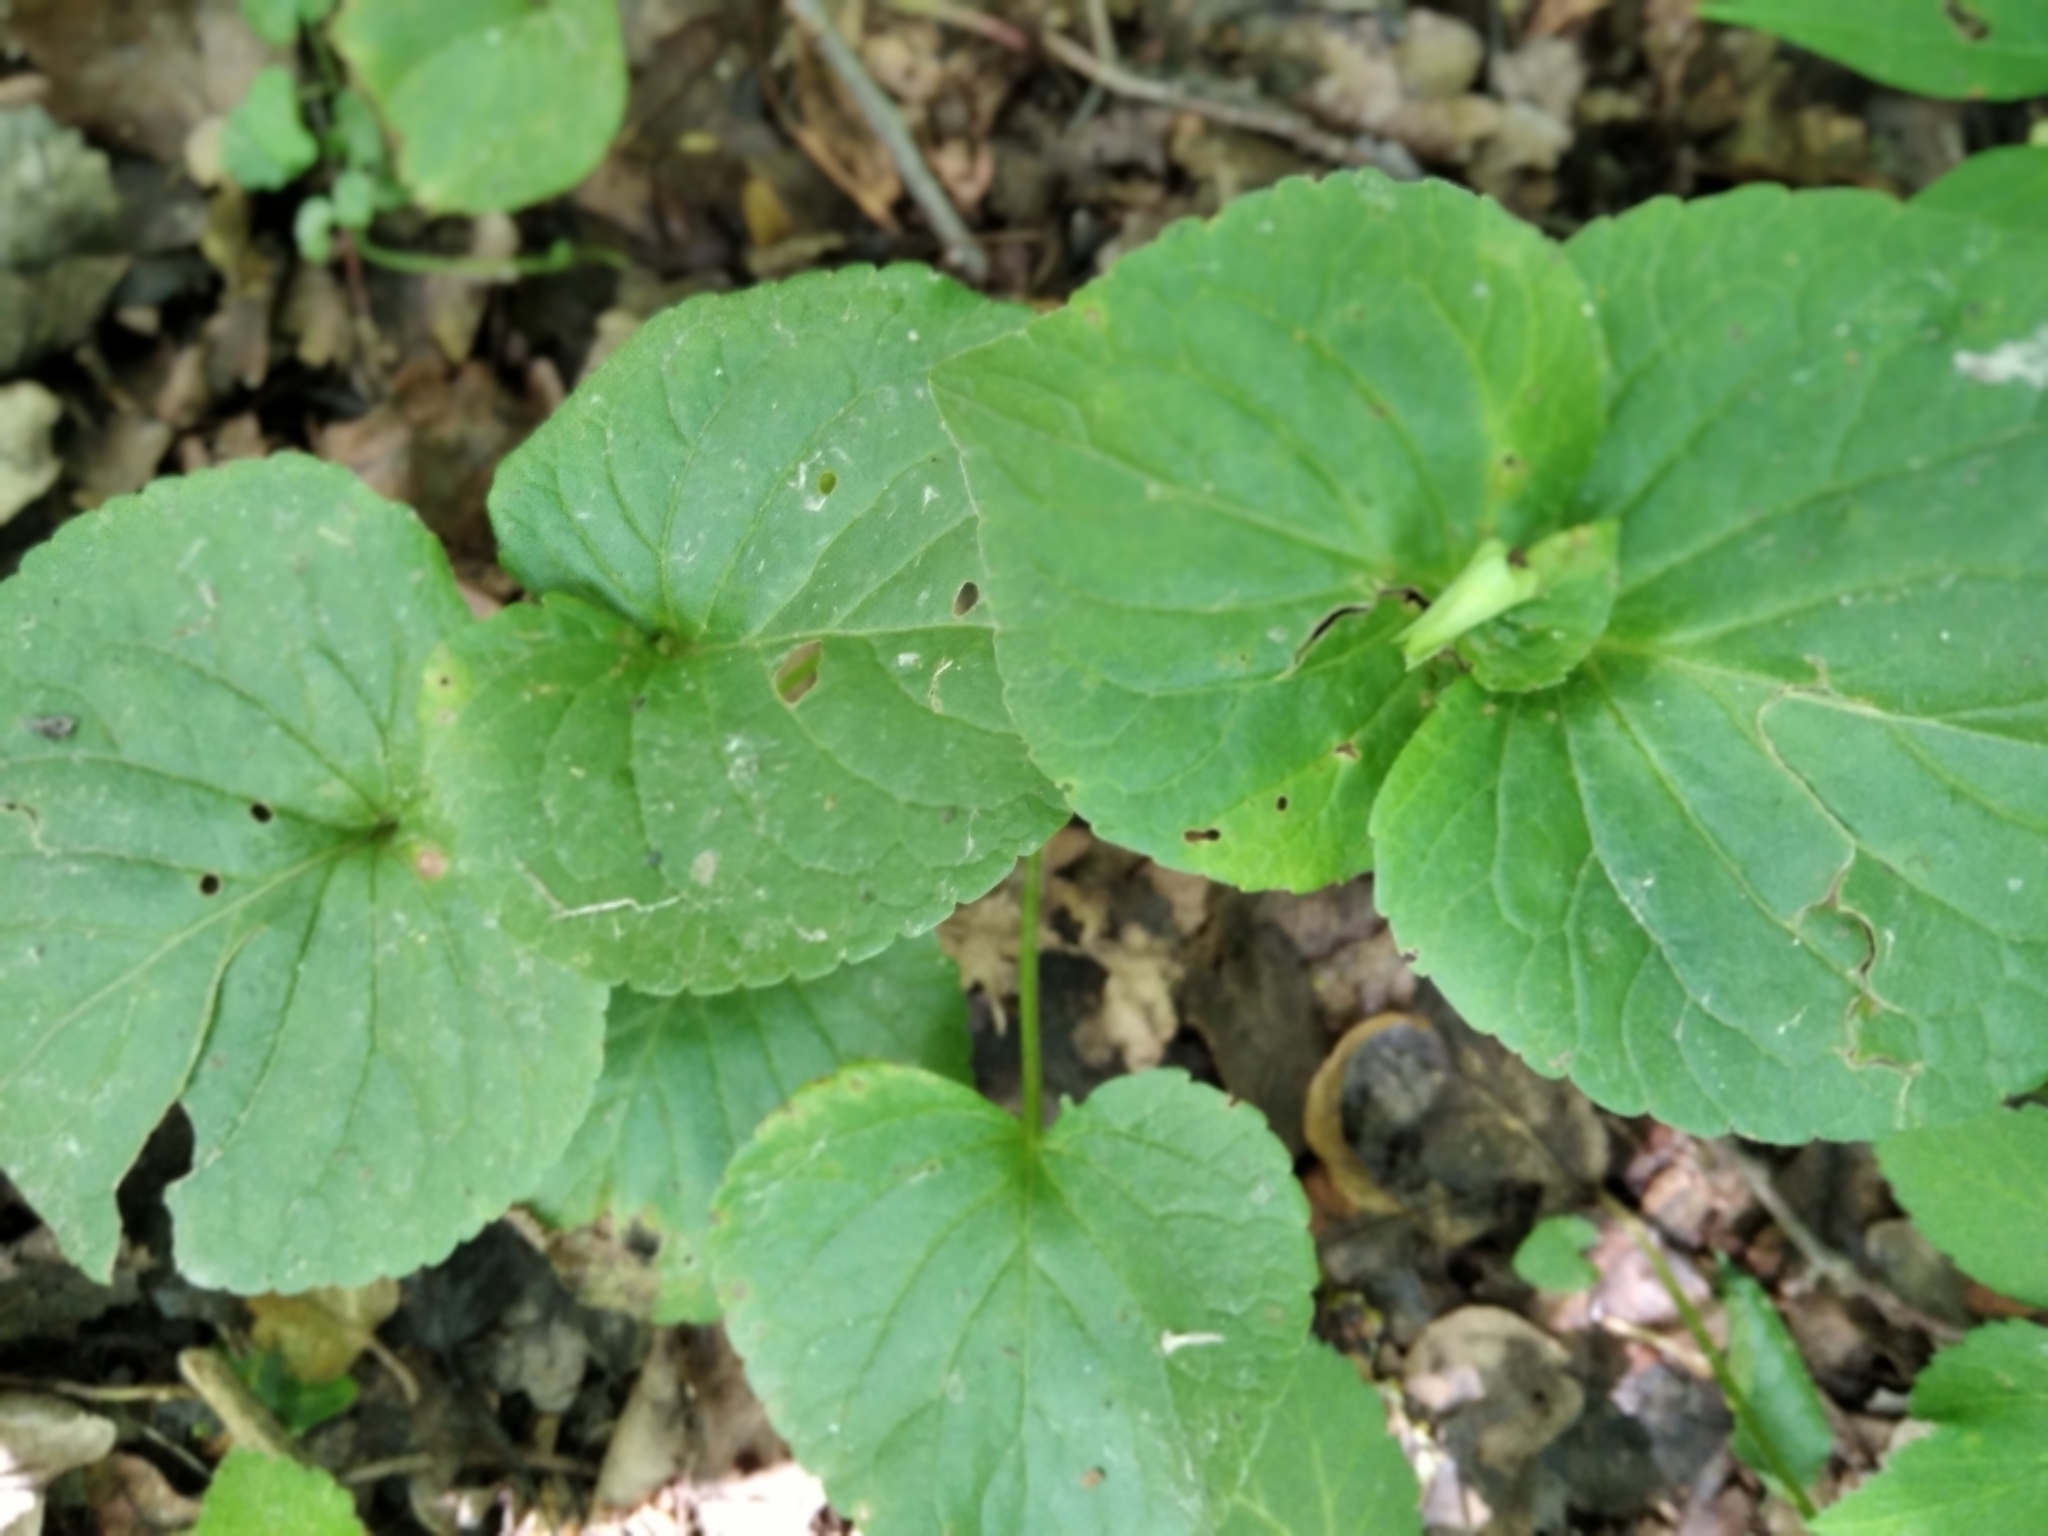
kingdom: Plantae
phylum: Tracheophyta
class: Magnoliopsida
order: Malpighiales
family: Violaceae
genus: Viola
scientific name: Viola mirabilis
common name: Wonder violet
